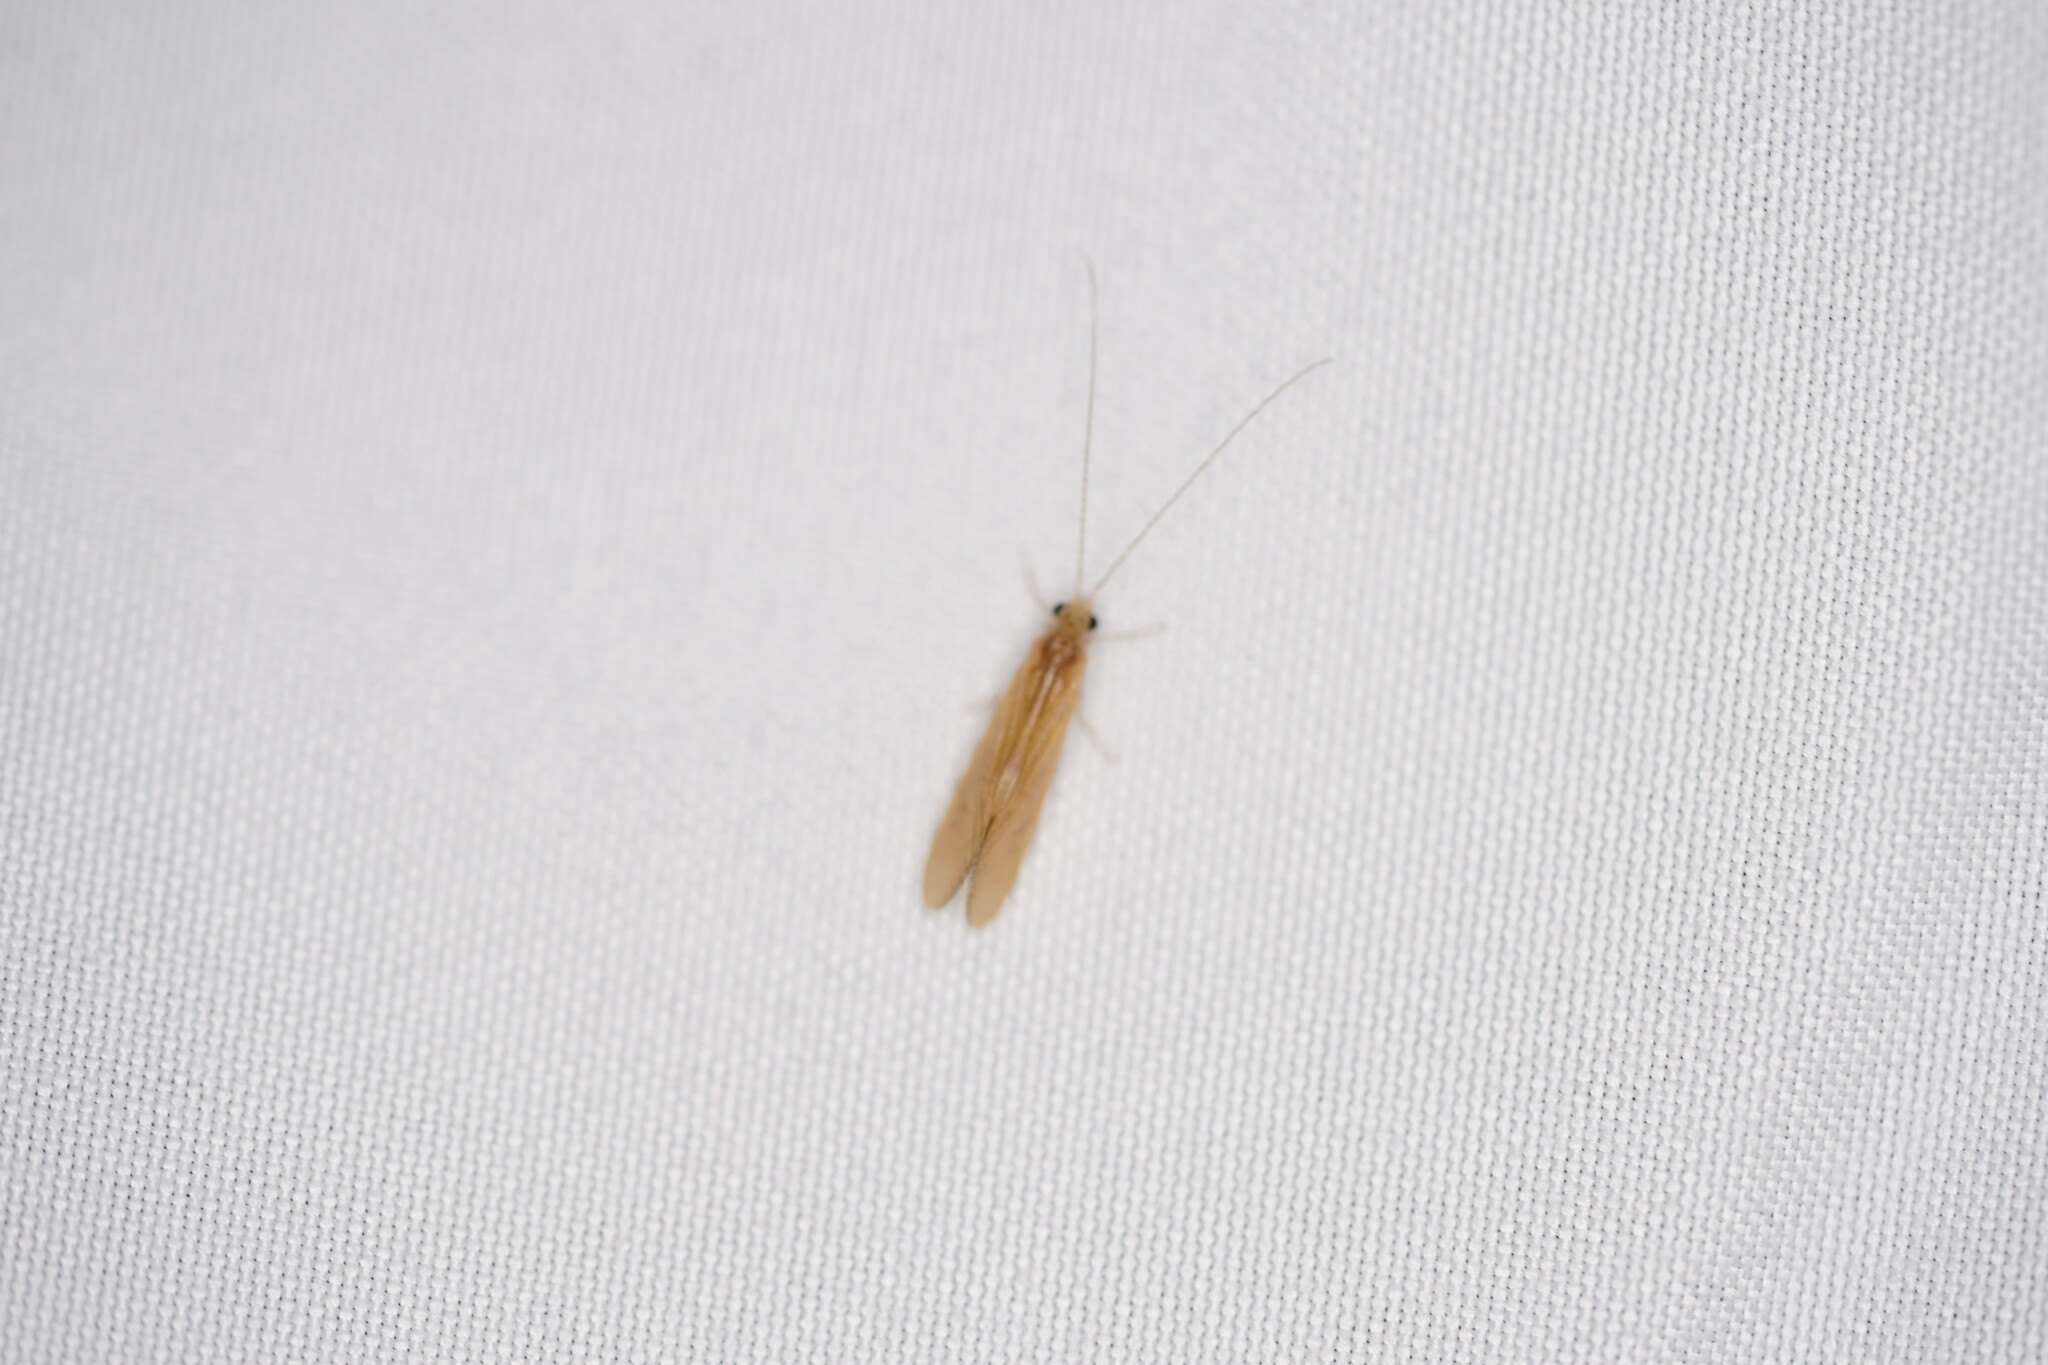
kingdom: Animalia
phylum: Arthropoda
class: Insecta
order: Trichoptera
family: Hydropsychidae
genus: Potamyia
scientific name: Potamyia flava
